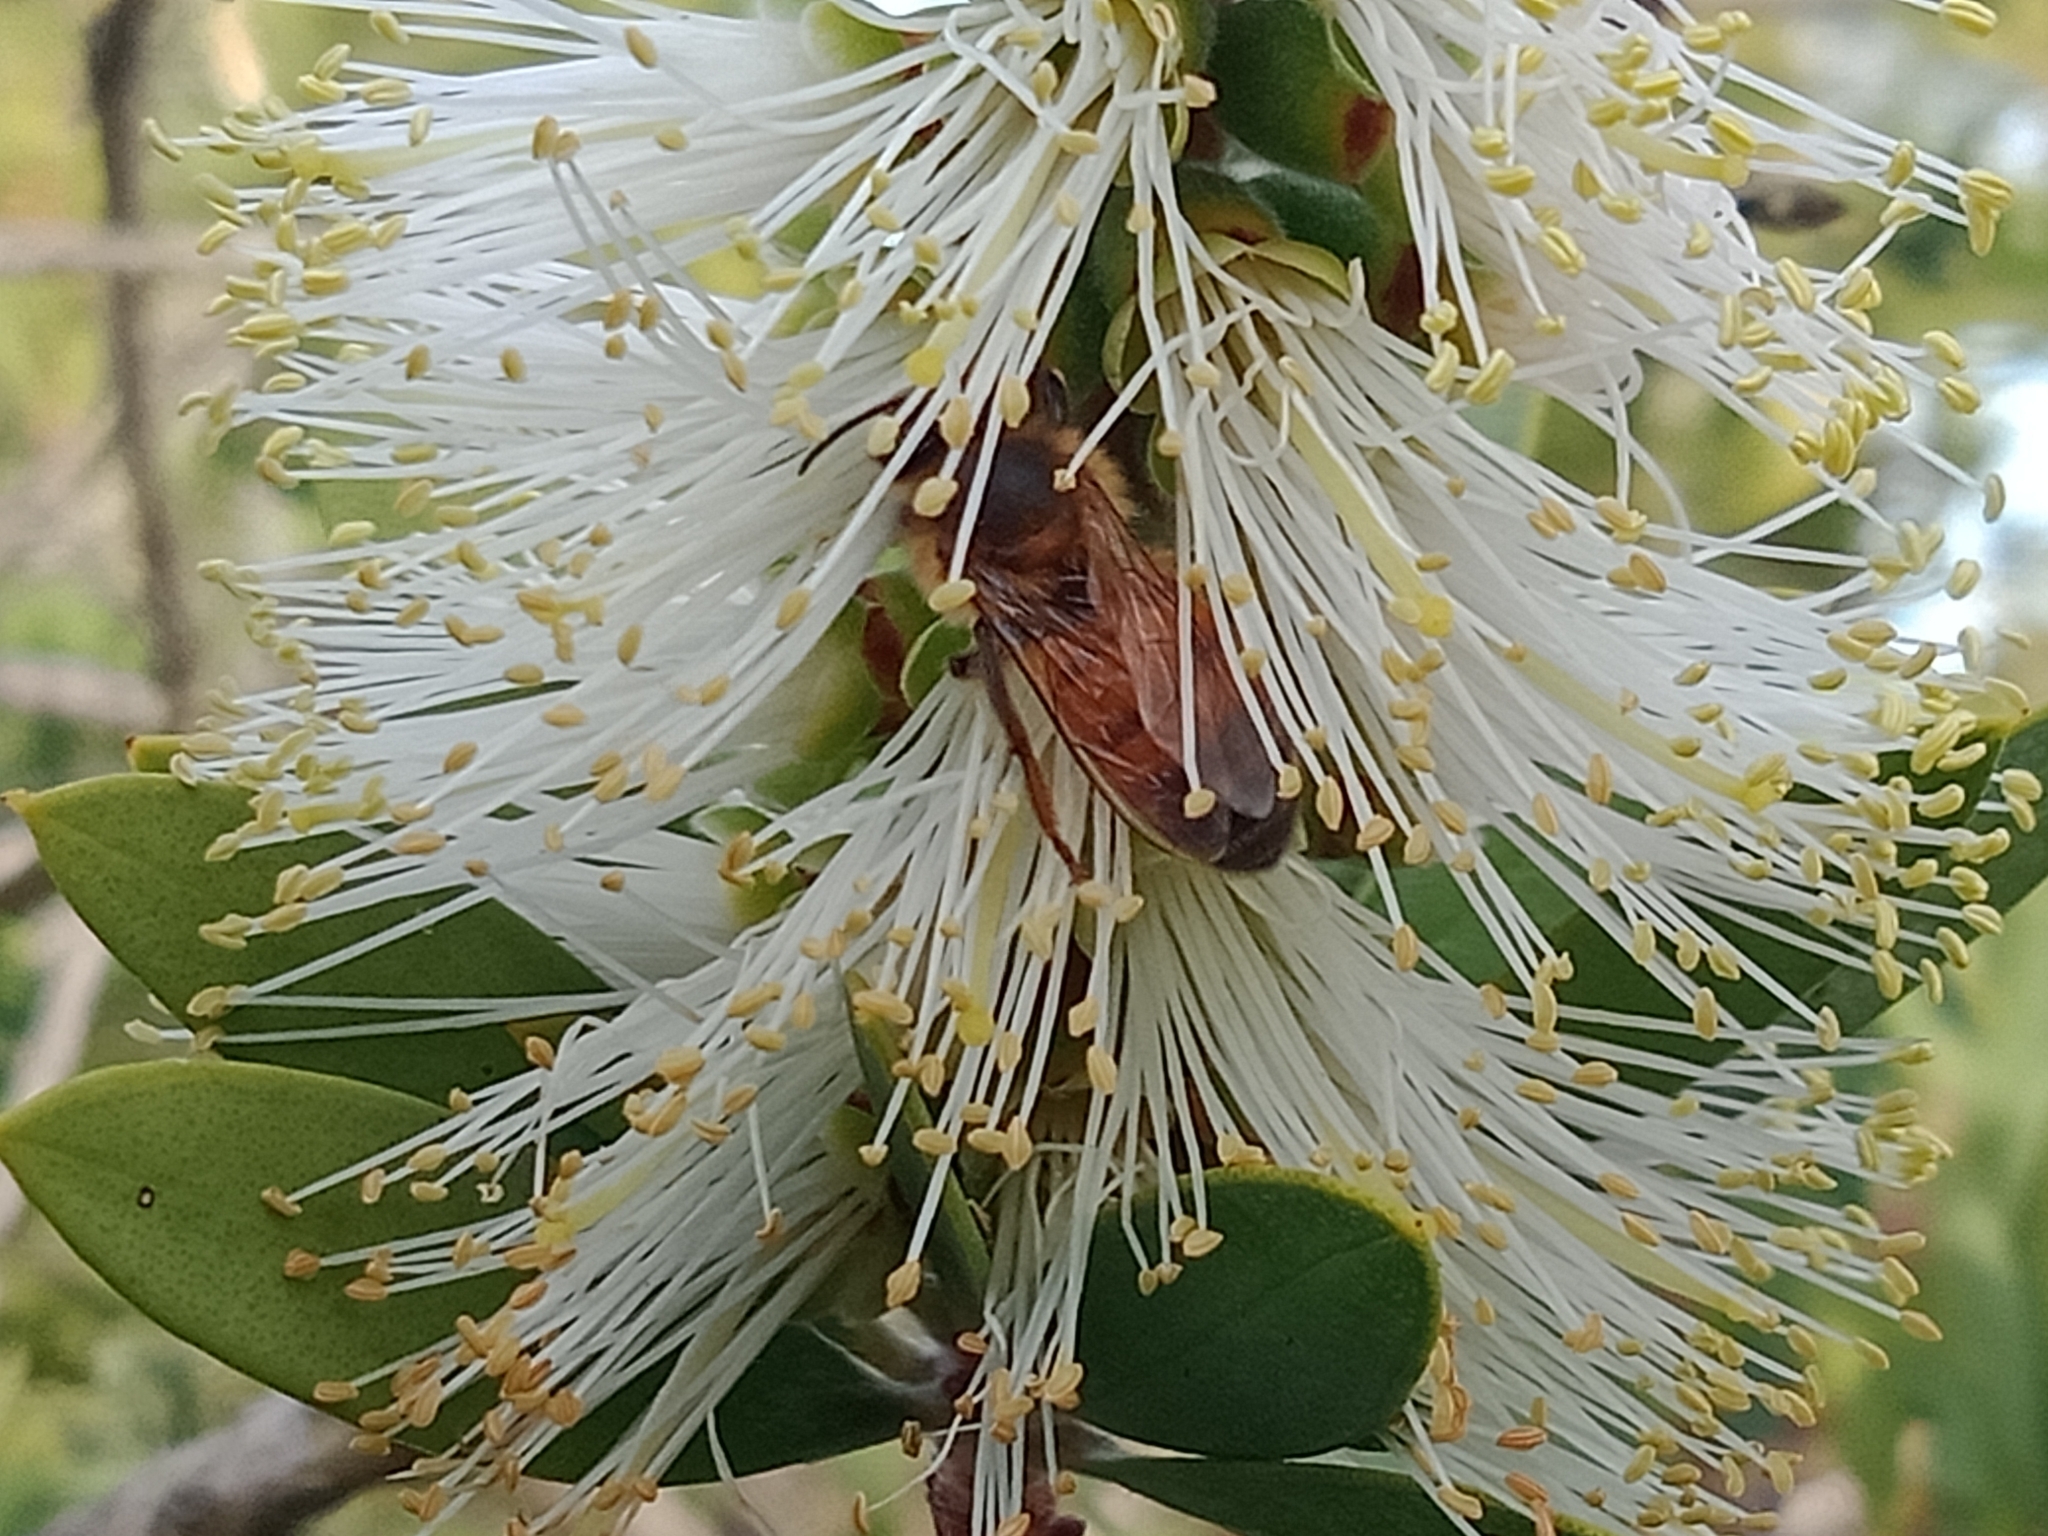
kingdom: Animalia
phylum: Arthropoda
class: Insecta
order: Hymenoptera
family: Apidae
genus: Apis
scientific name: Apis mellifera
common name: Honey bee
